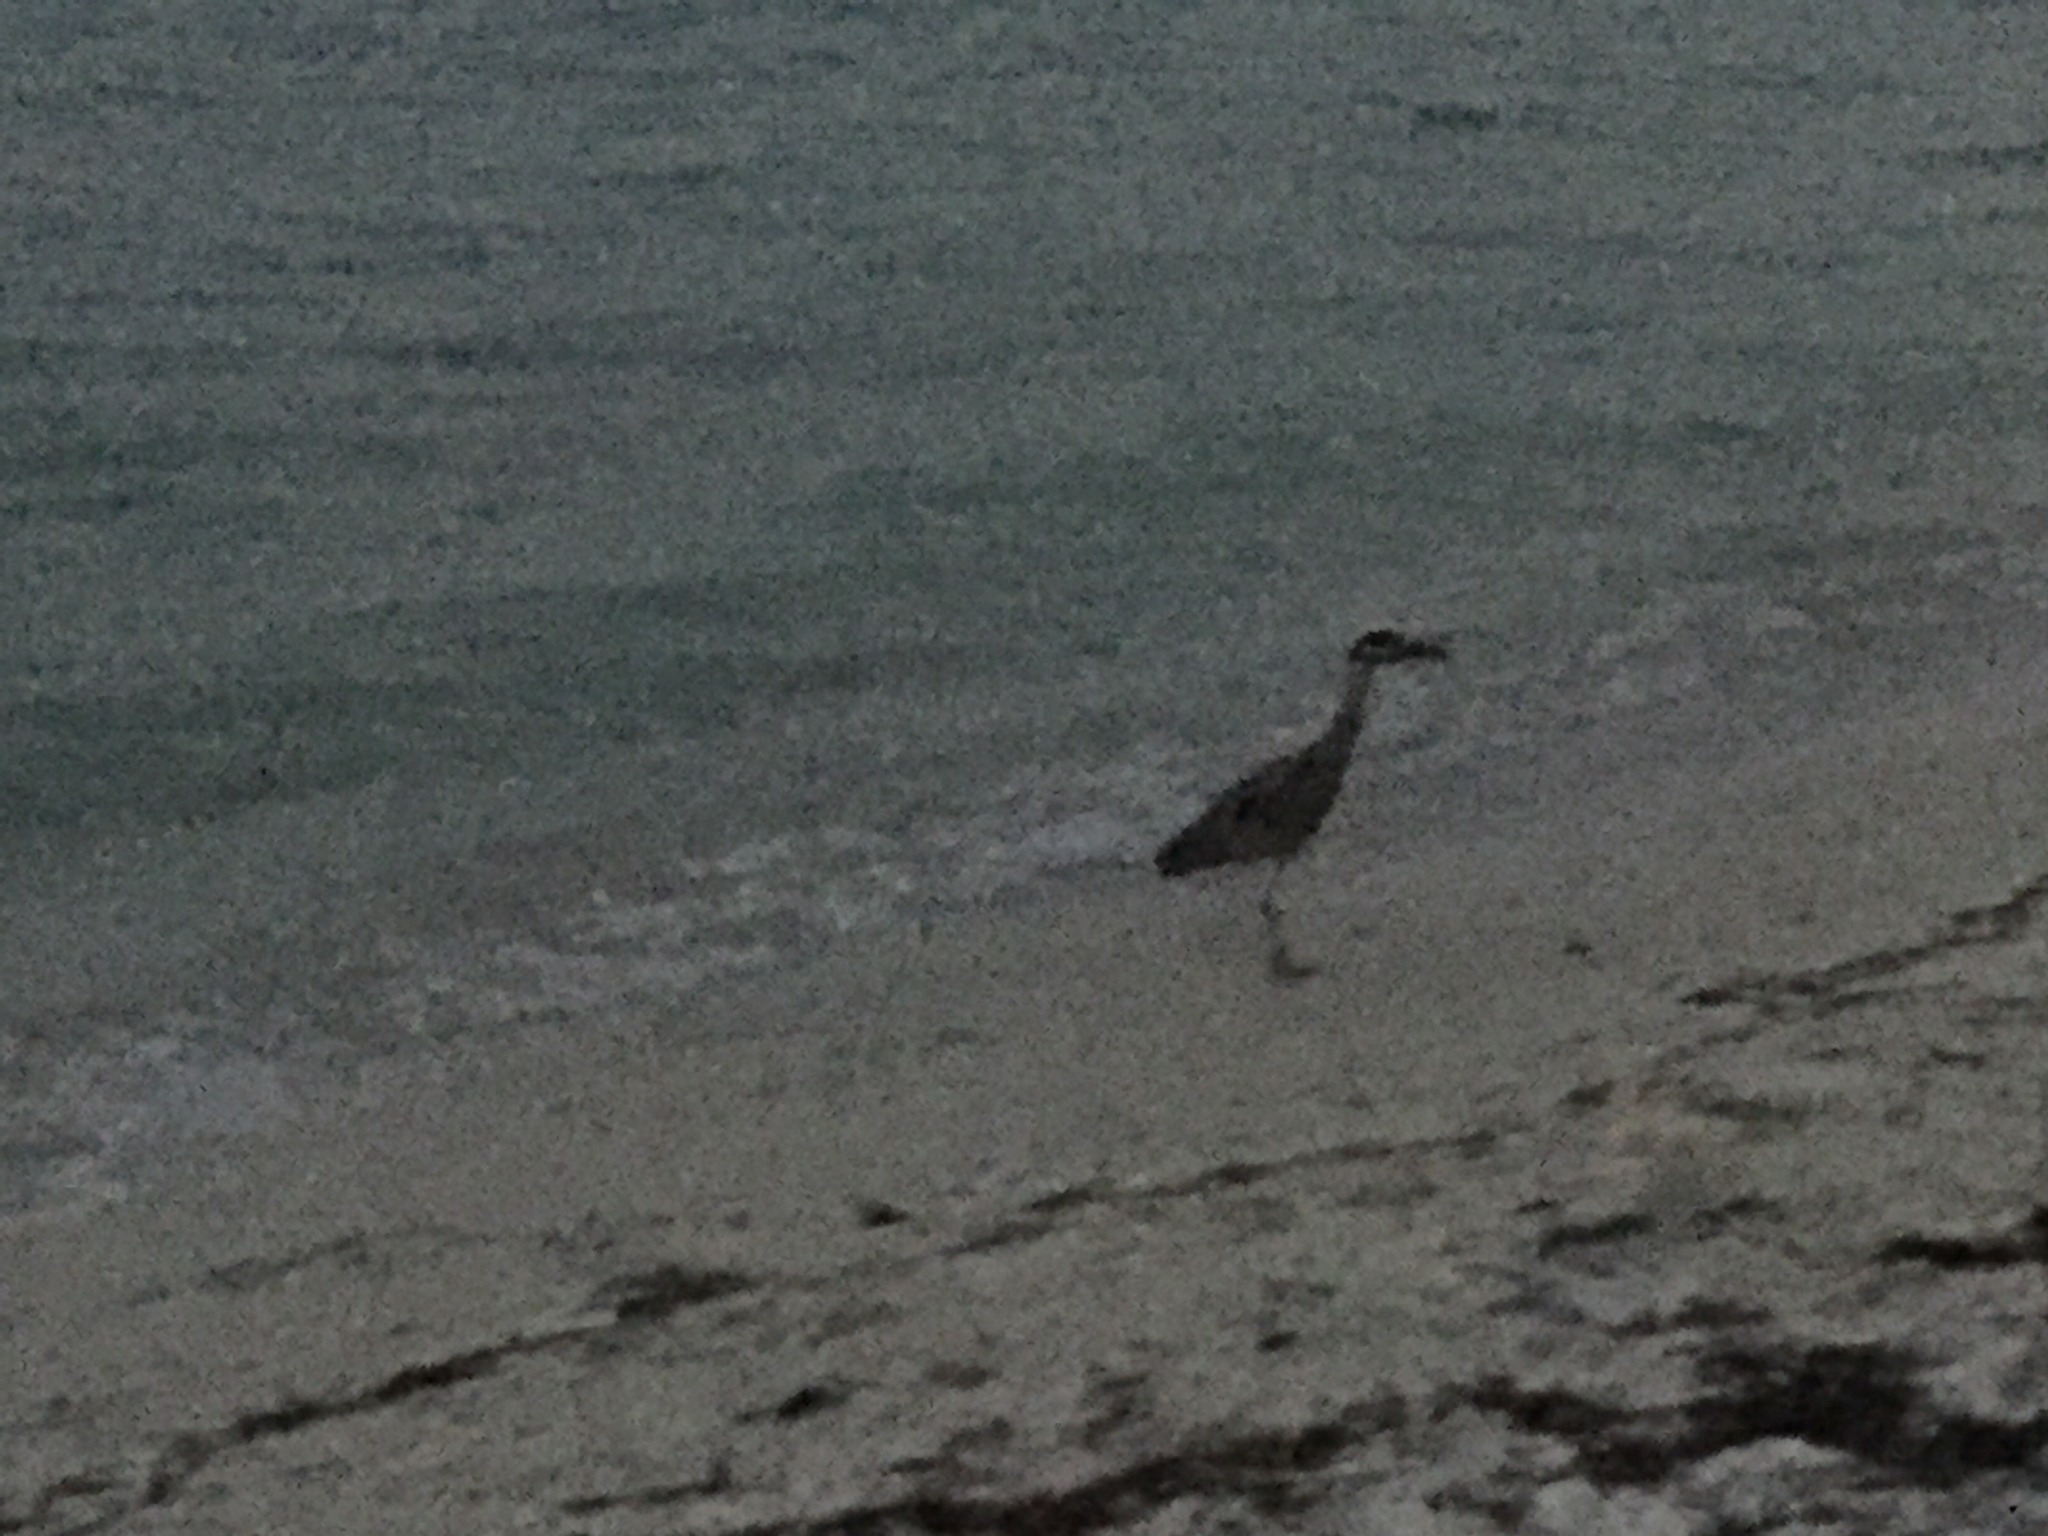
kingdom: Animalia
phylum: Chordata
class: Aves
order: Pelecaniformes
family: Ardeidae
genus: Nycticorax
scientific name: Nycticorax nycticorax
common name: Black-crowned night heron
